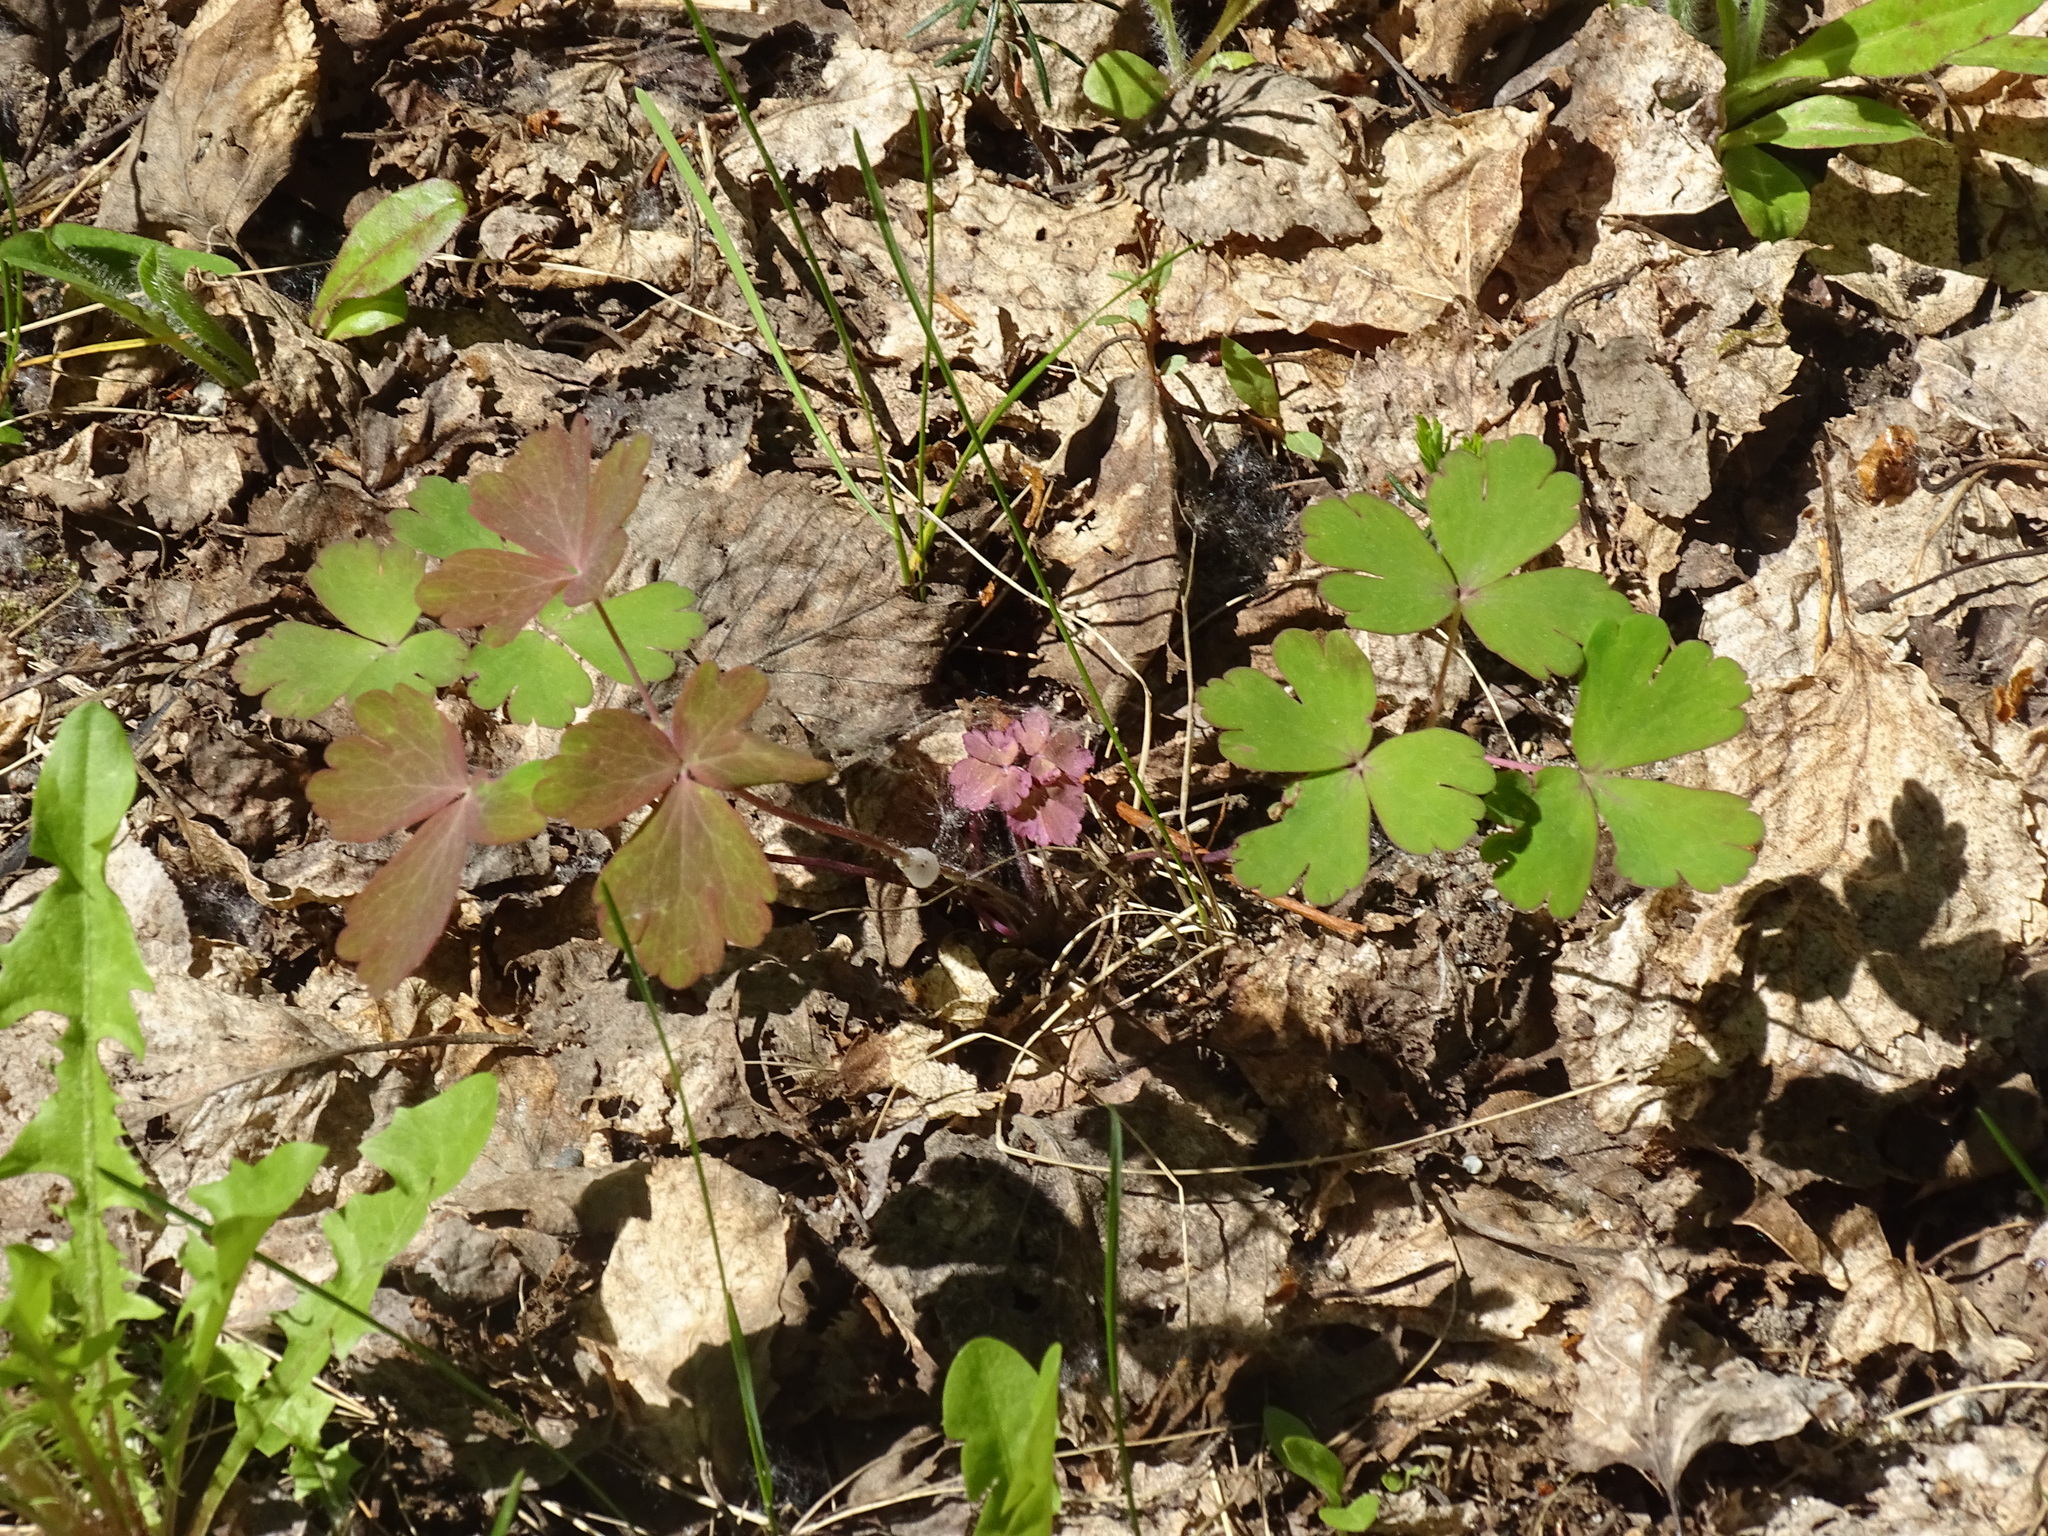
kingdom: Plantae
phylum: Tracheophyta
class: Magnoliopsida
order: Ranunculales
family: Ranunculaceae
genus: Aquilegia
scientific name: Aquilegia canadensis
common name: American columbine
